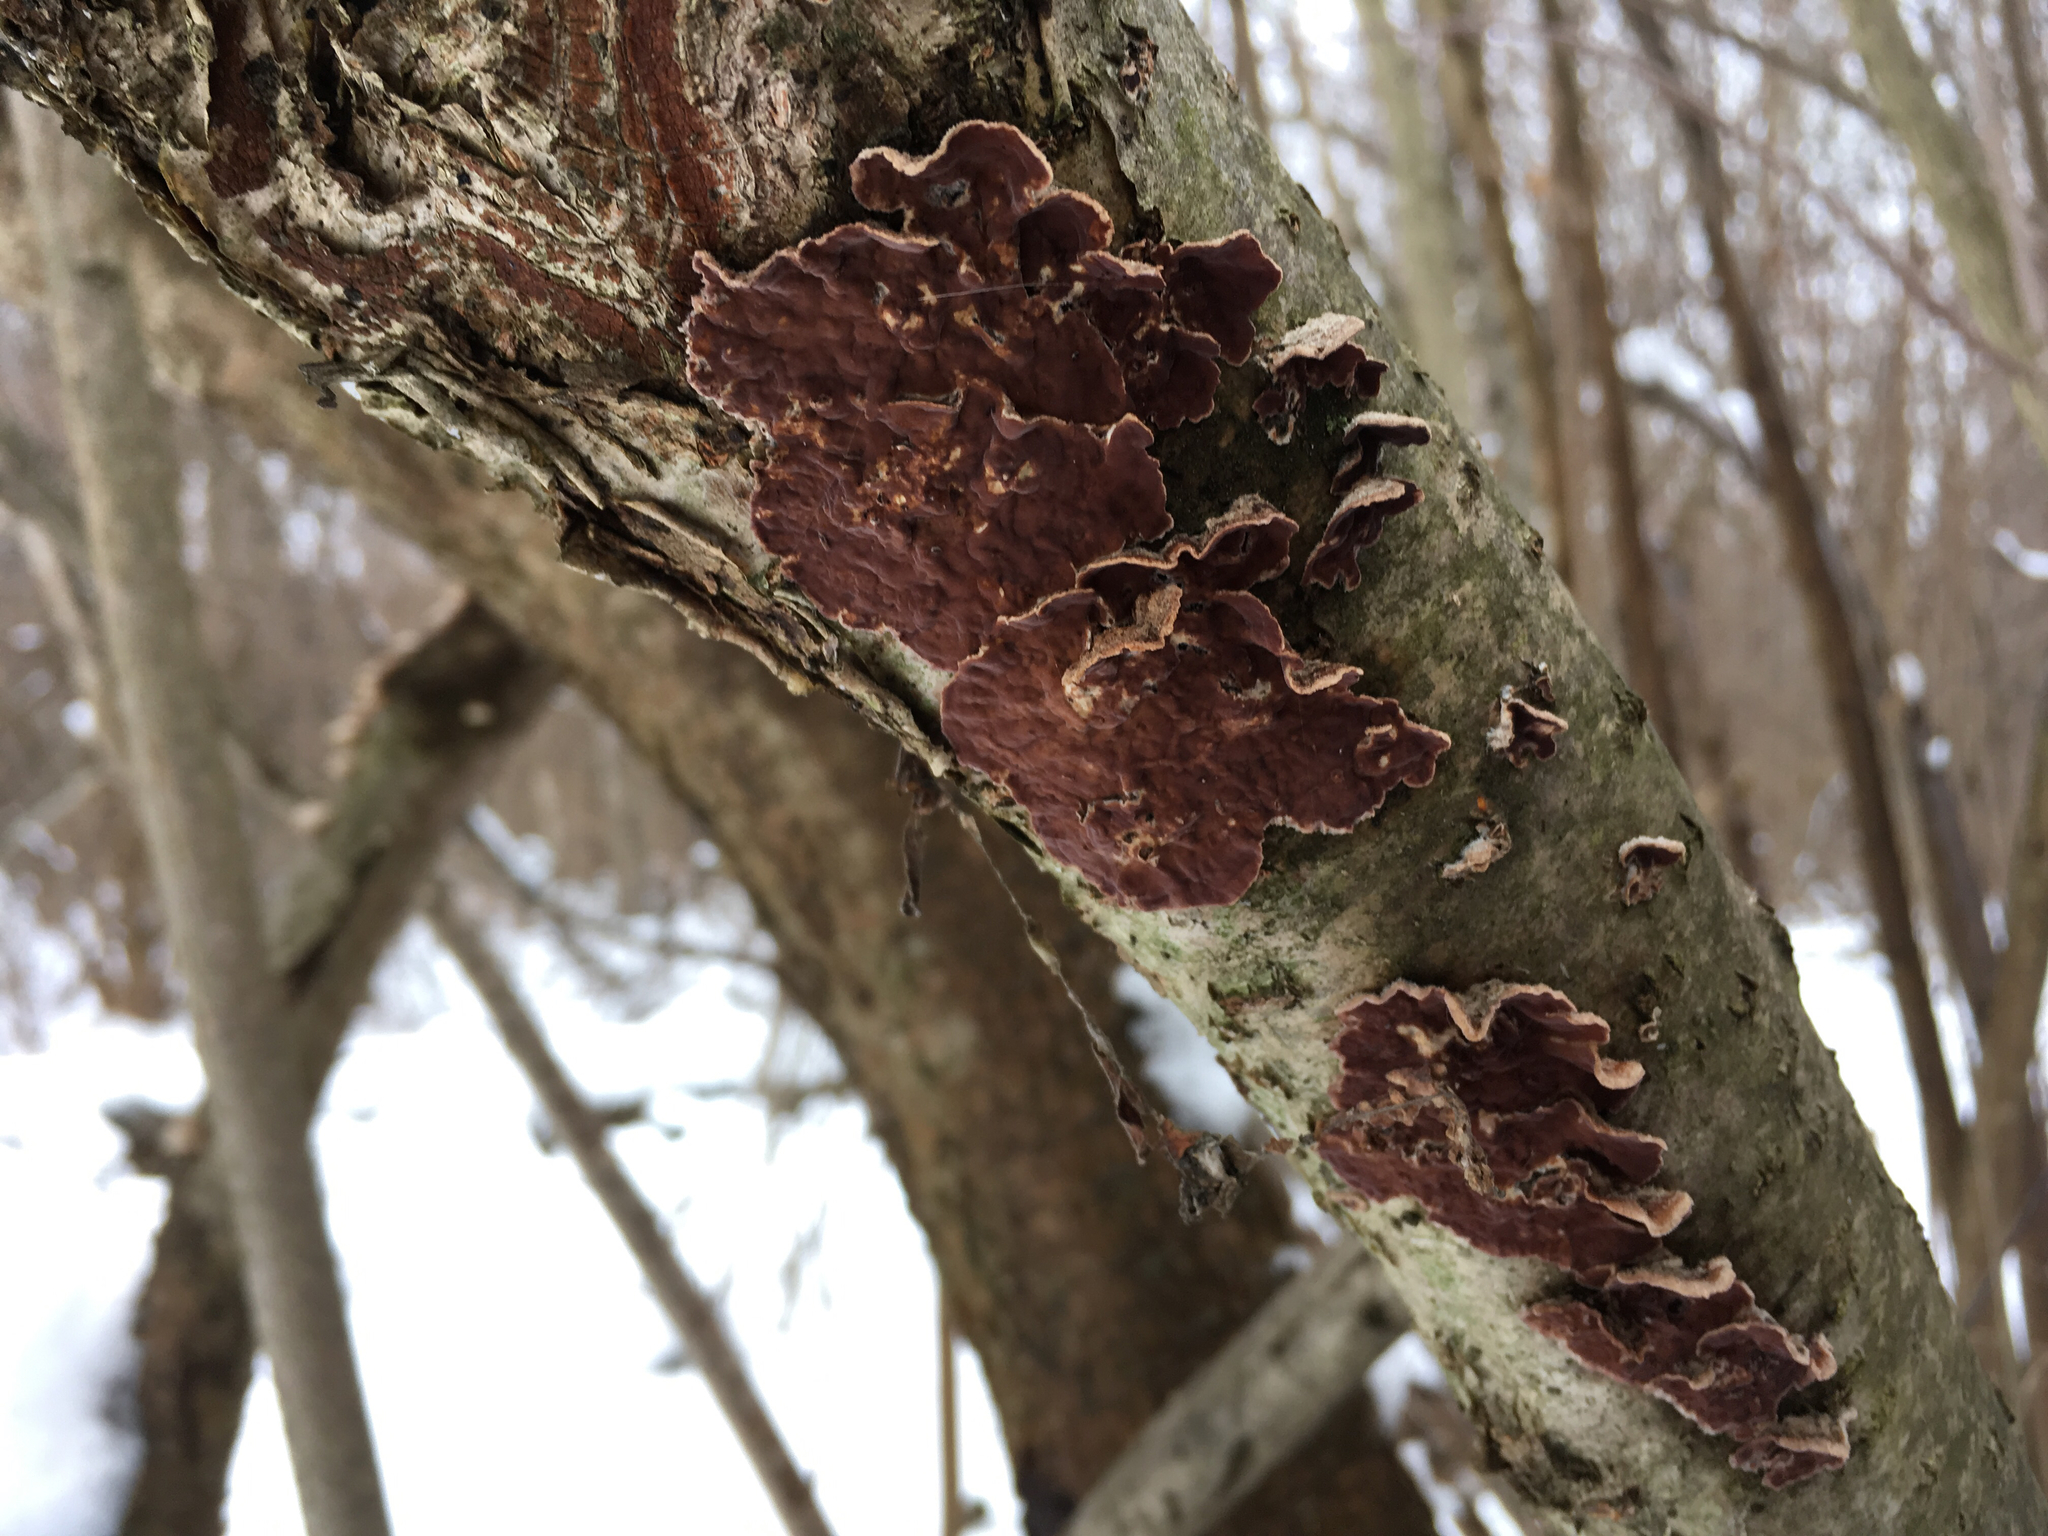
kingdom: Fungi
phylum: Basidiomycota
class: Agaricomycetes
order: Agaricales
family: Cyphellaceae
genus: Chondrostereum
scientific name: Chondrostereum purpureum
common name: Silver leaf disease
